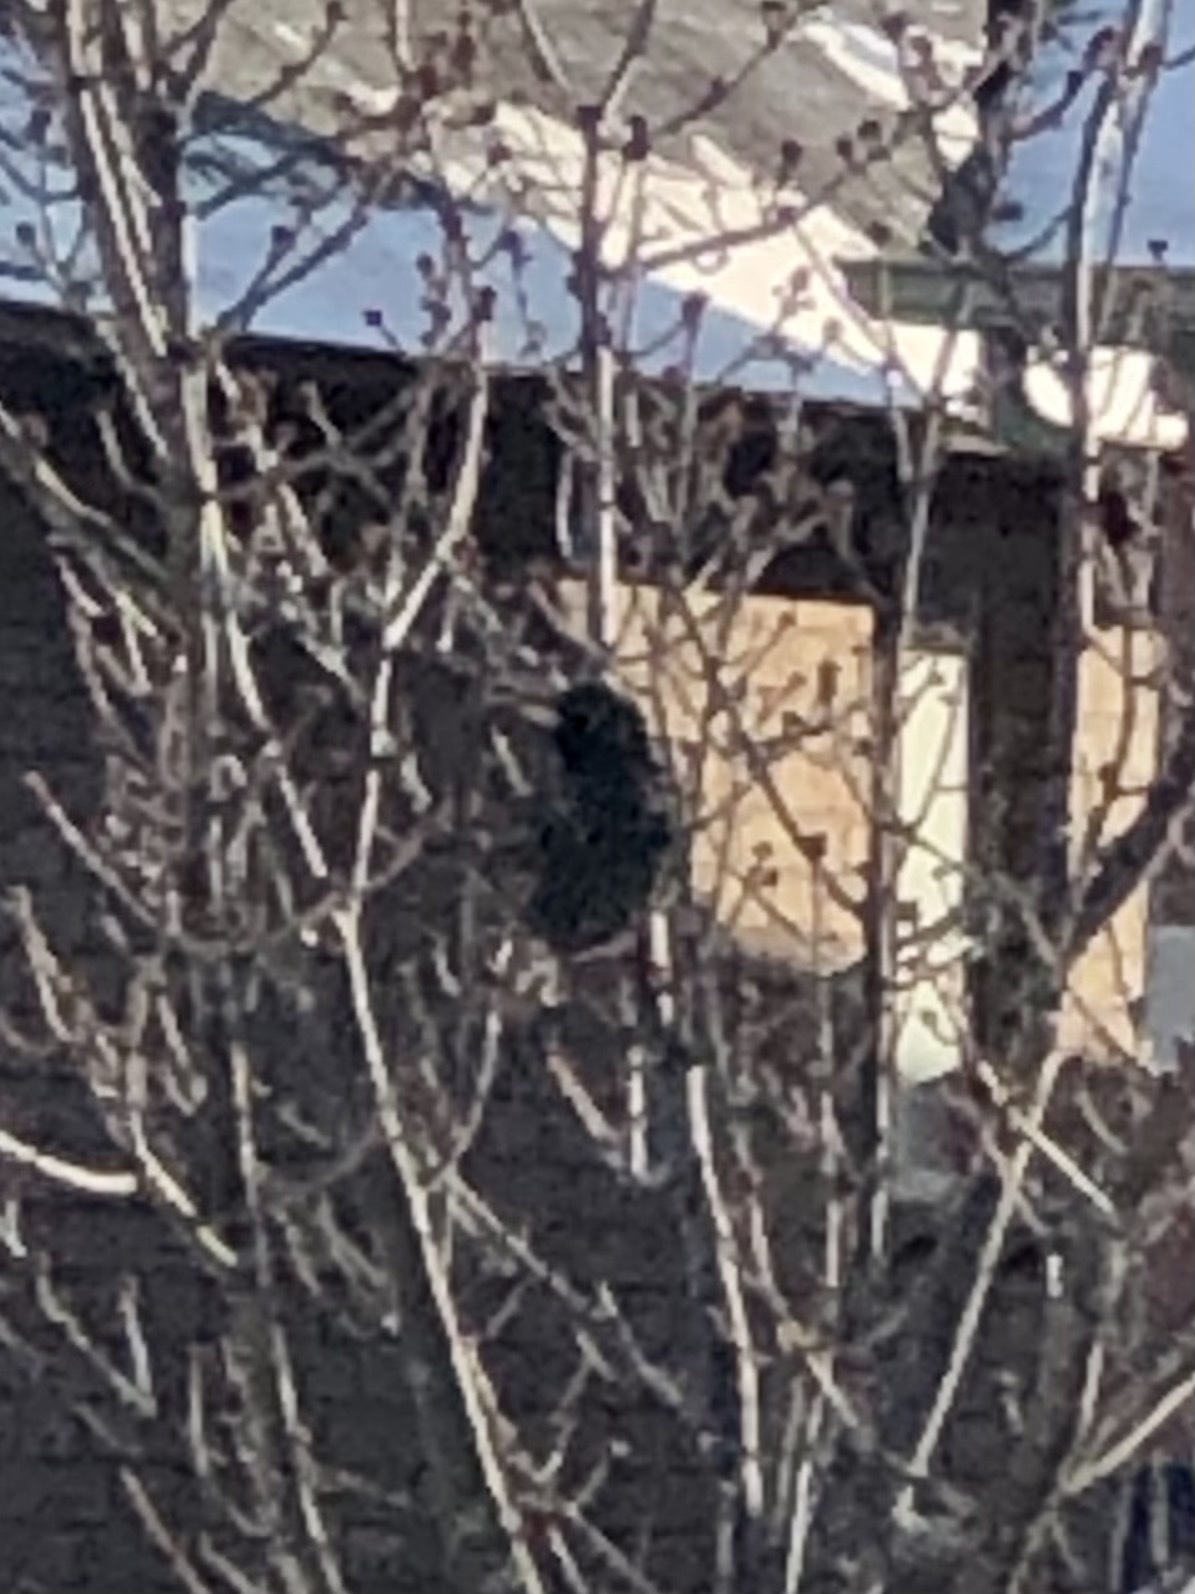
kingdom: Animalia
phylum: Chordata
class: Aves
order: Passeriformes
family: Sturnidae
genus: Sturnus
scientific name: Sturnus vulgaris
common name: Common starling
